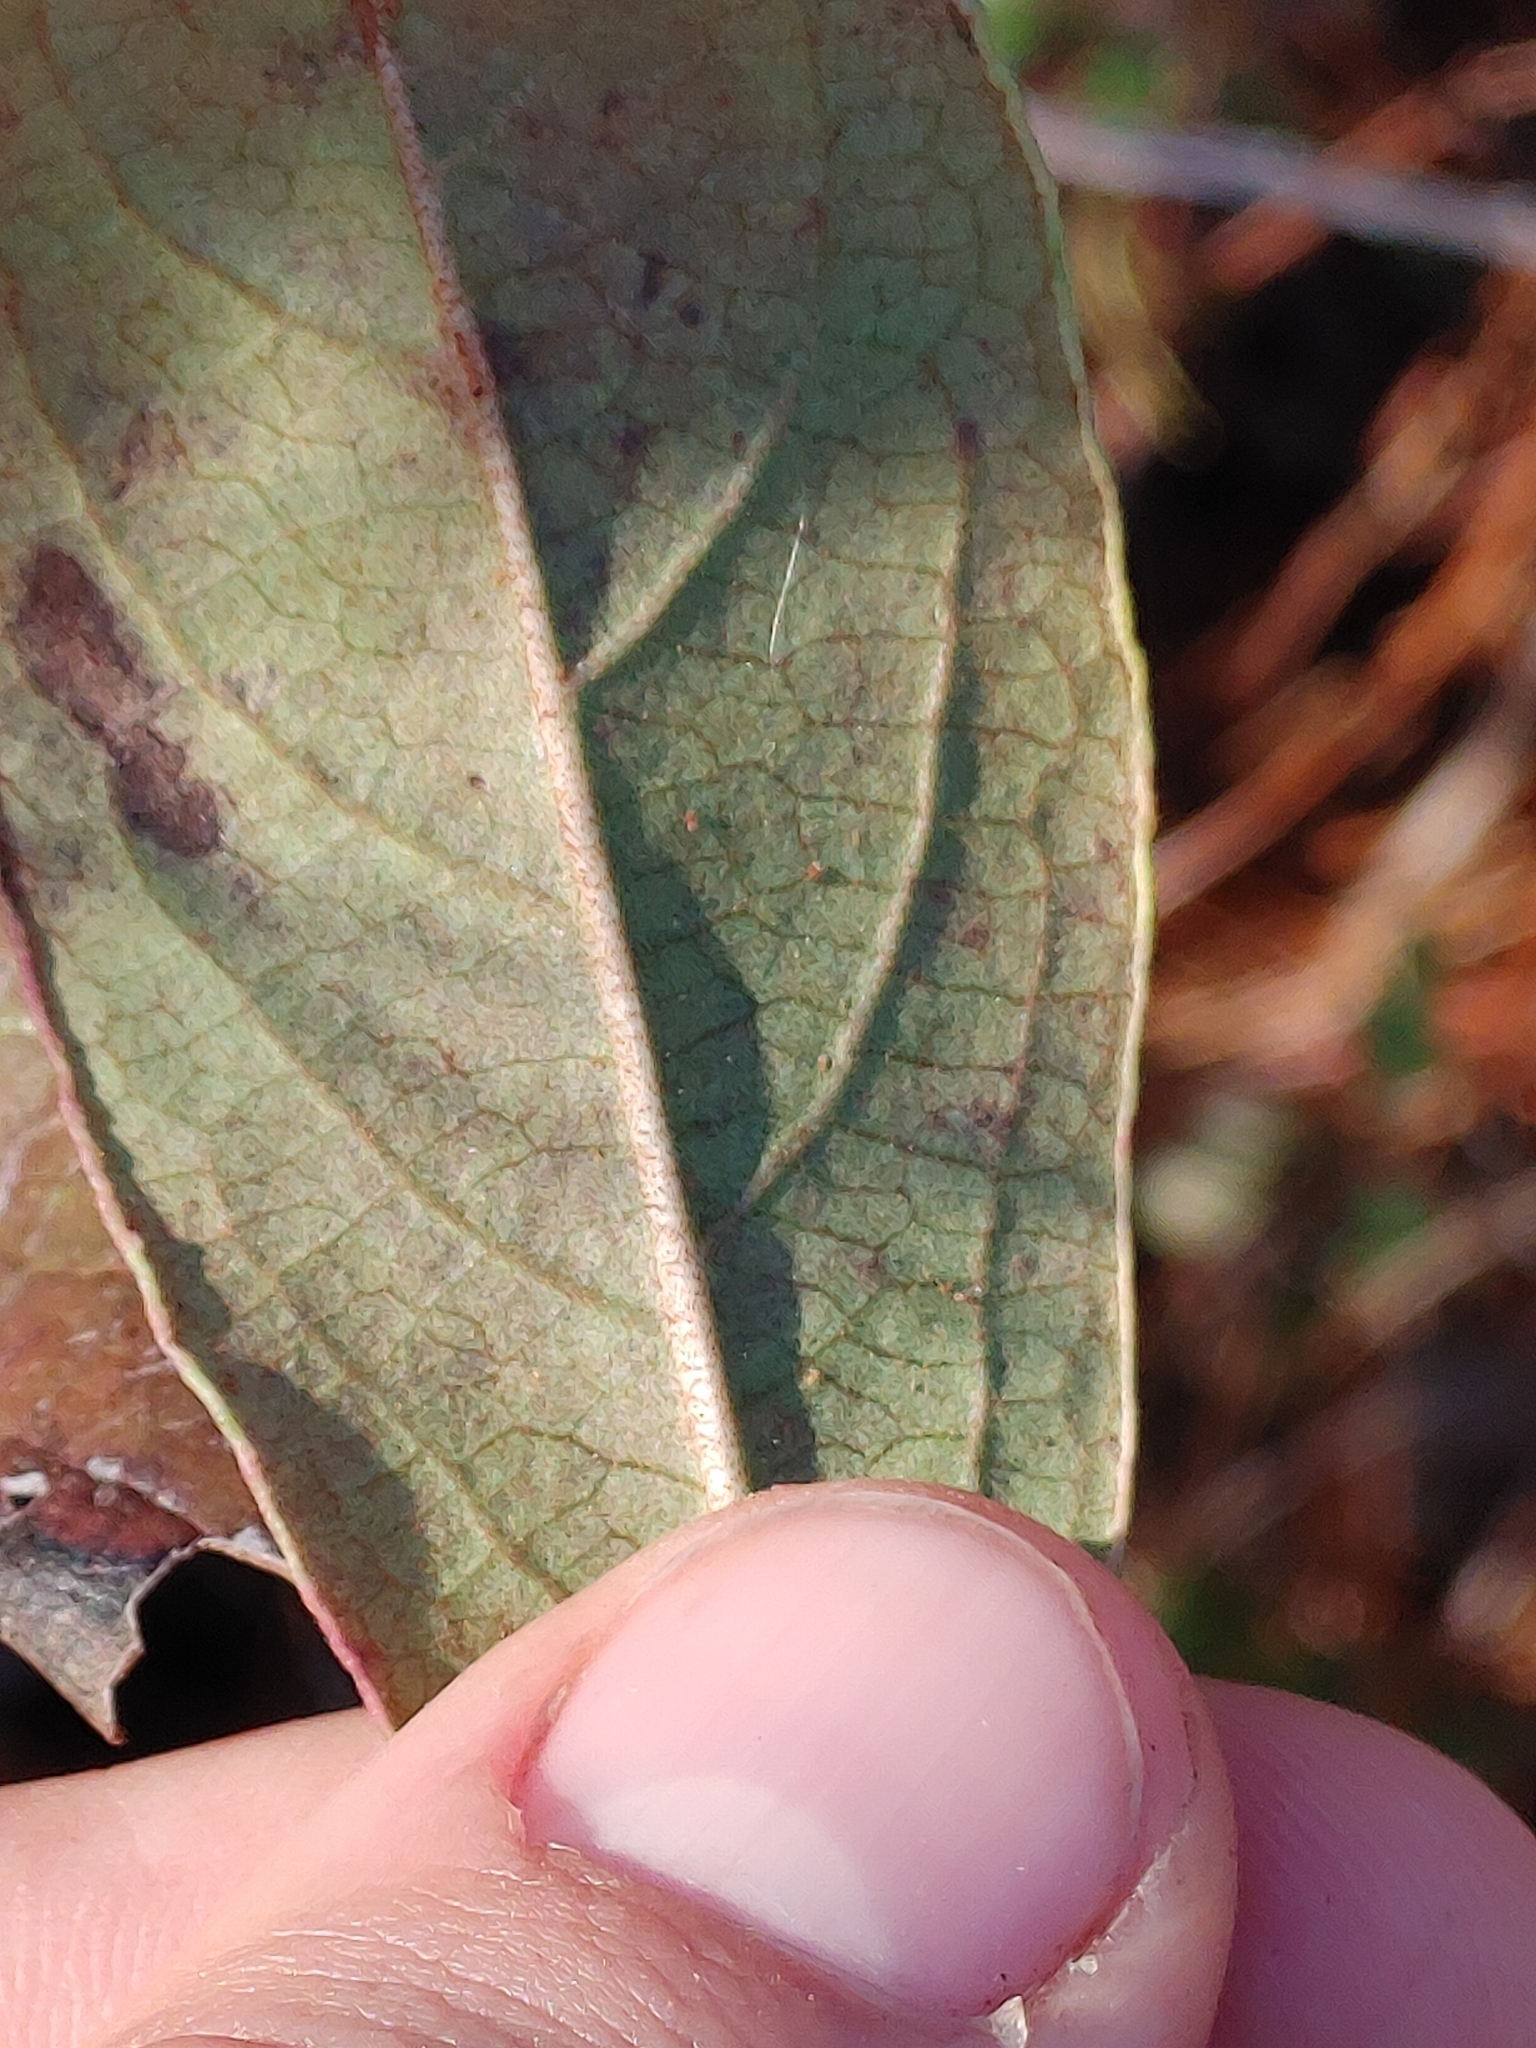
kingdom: Plantae
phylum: Tracheophyta
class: Magnoliopsida
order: Dipsacales
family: Viburnaceae
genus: Viburnum
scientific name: Viburnum nudum
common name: Possum haw
